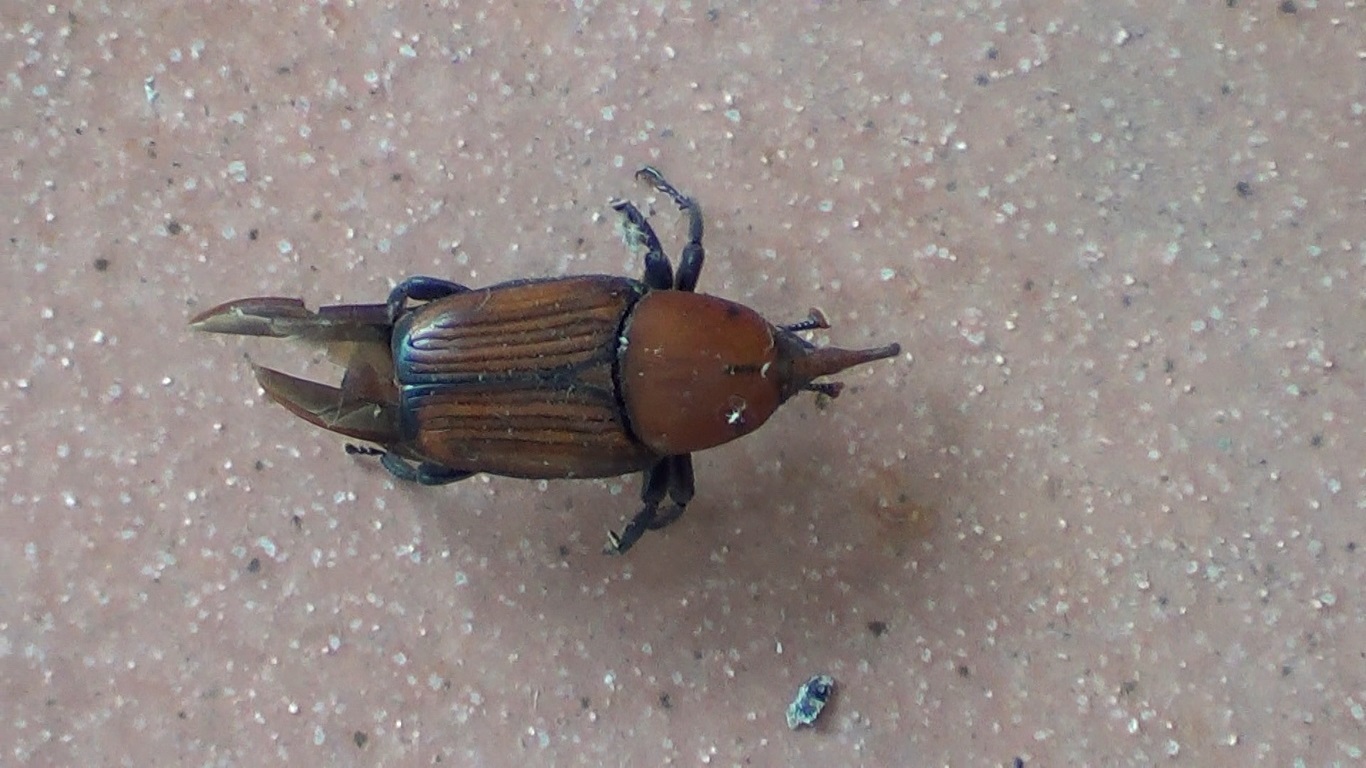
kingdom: Animalia
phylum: Arthropoda
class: Insecta
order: Coleoptera
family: Dryophthoridae
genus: Rhynchophorus
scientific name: Rhynchophorus ferrugineus
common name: Red palm weevil
